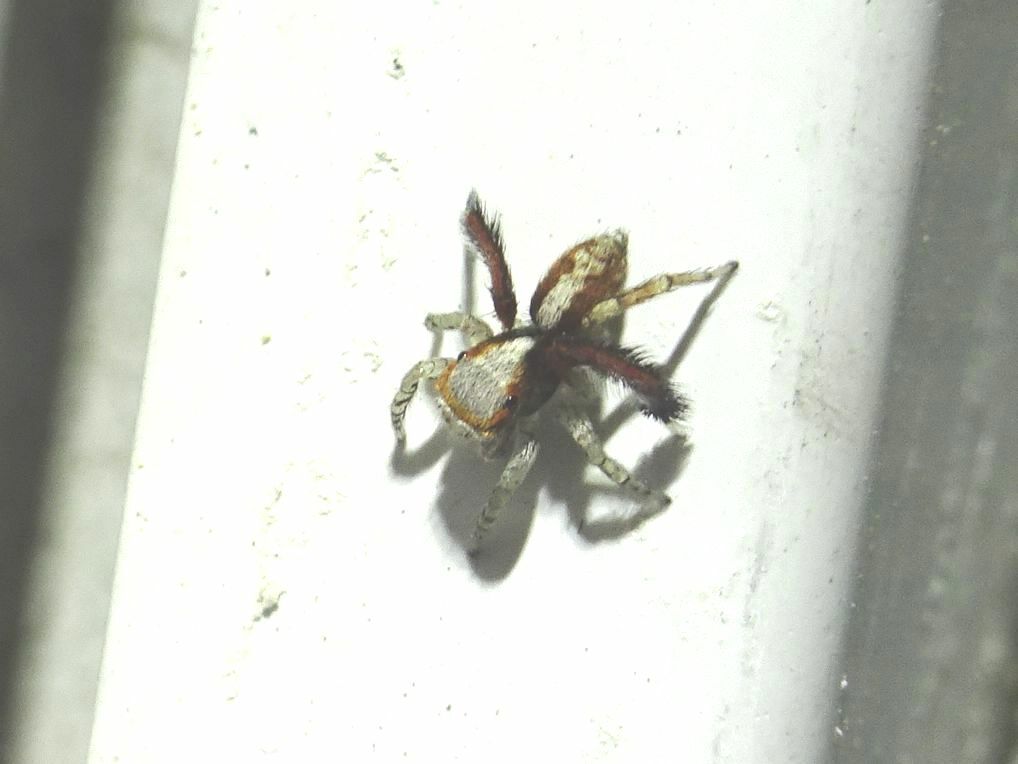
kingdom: Animalia
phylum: Arthropoda
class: Arachnida
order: Araneae
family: Salticidae
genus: Saitis
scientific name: Saitis barbipes
